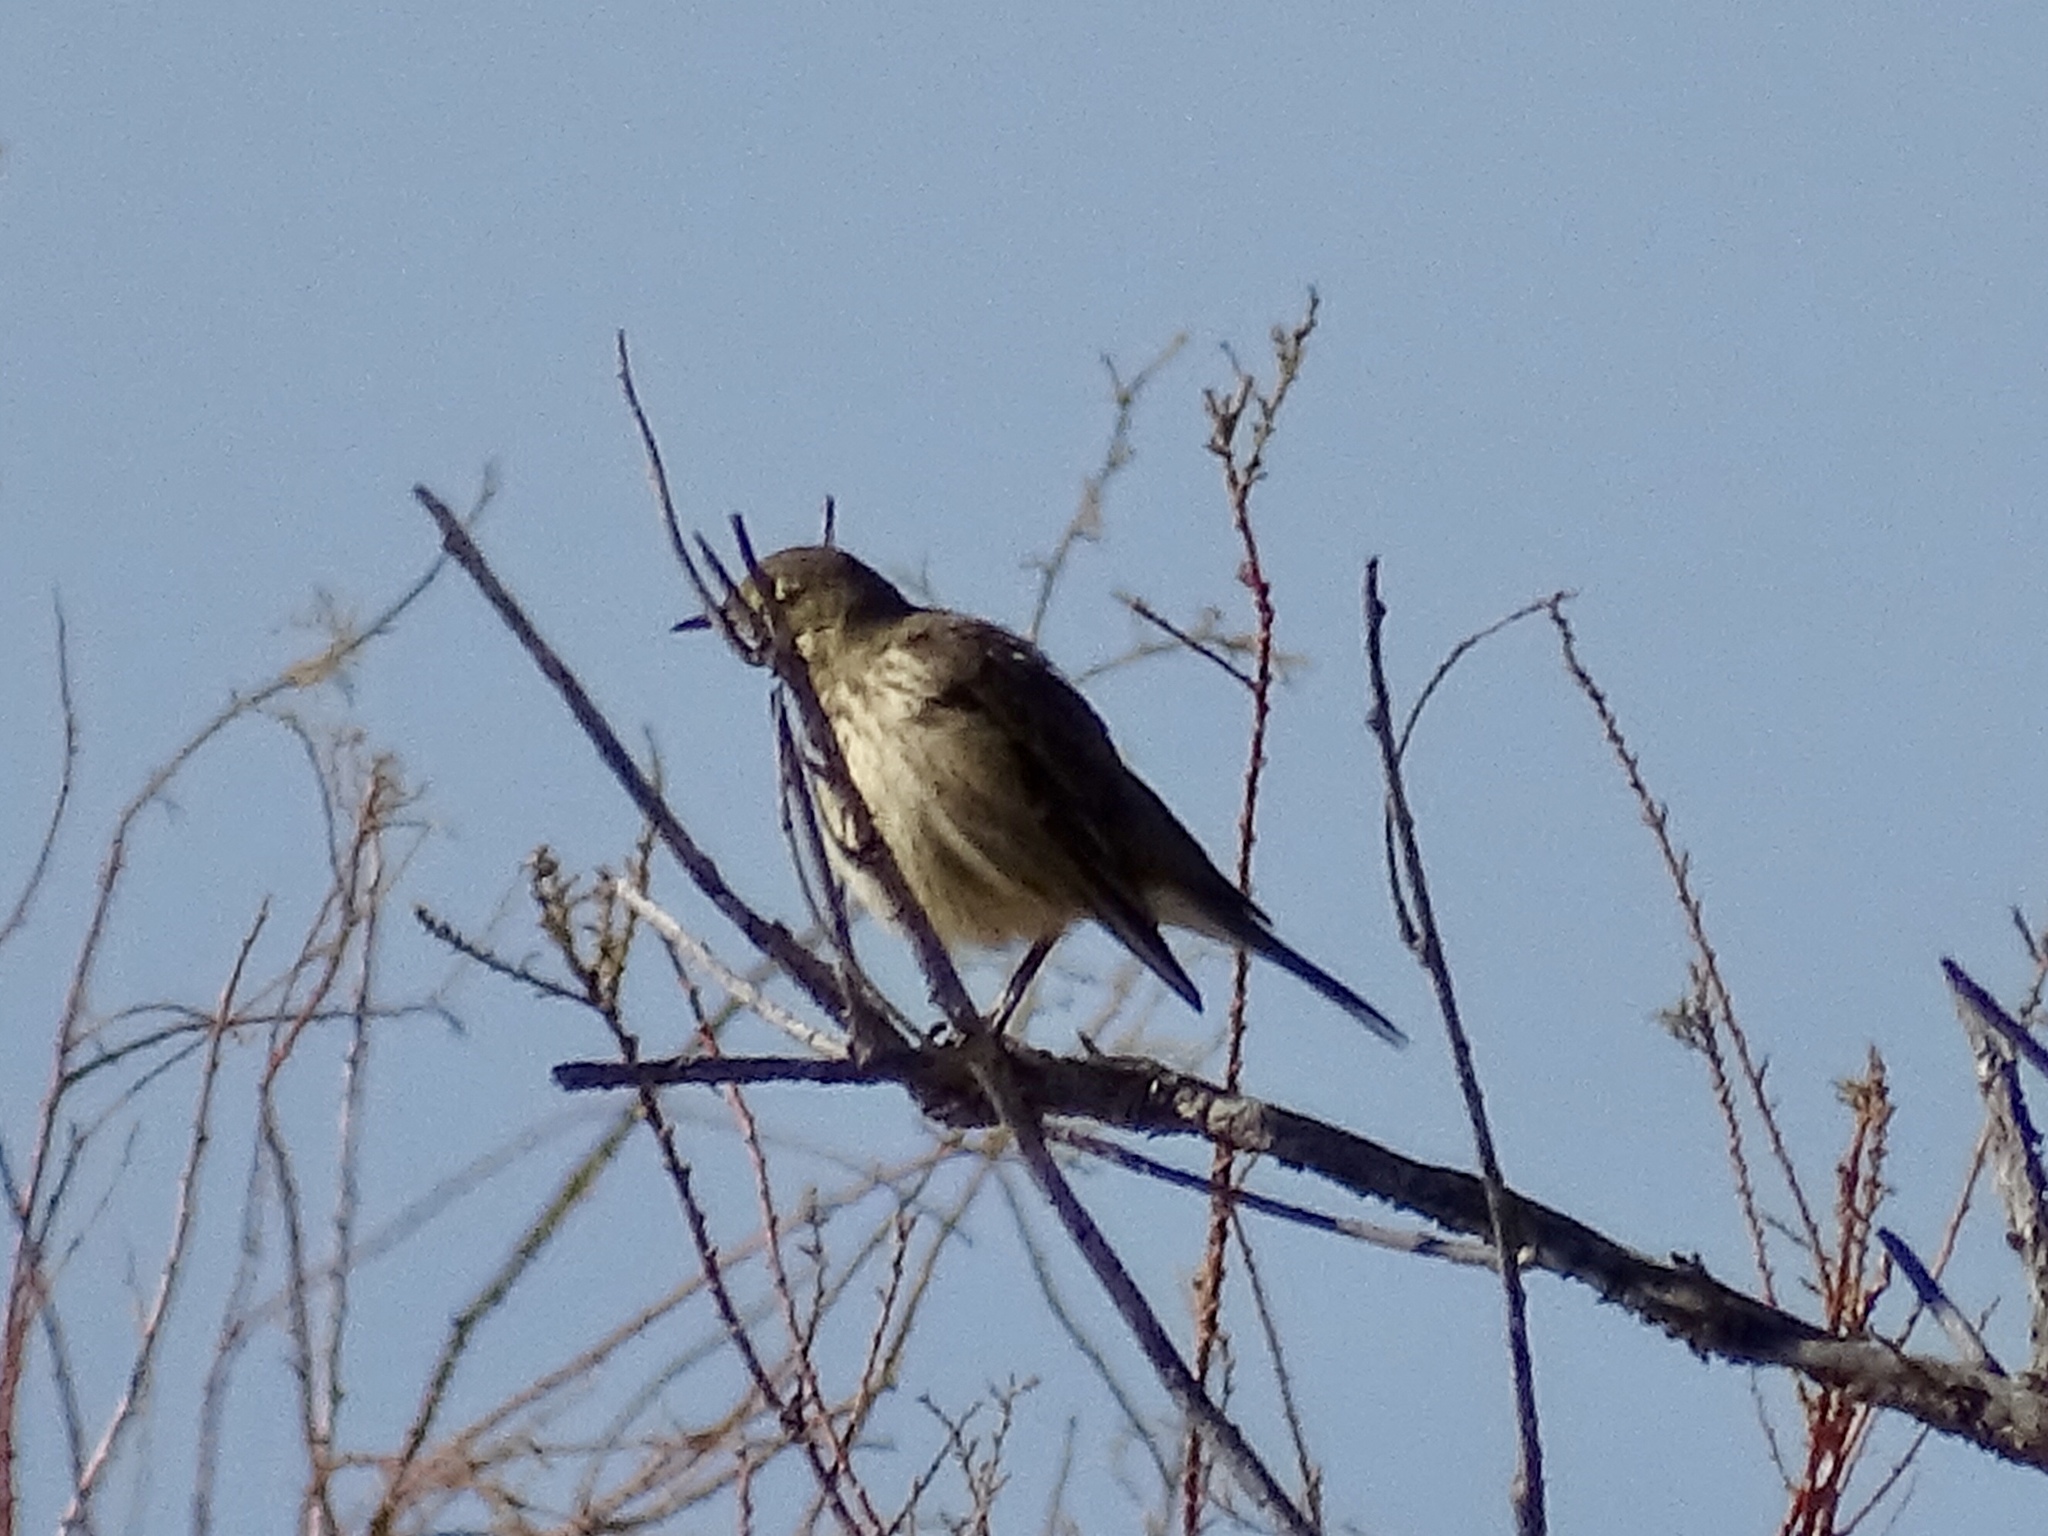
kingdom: Animalia
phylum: Chordata
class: Aves
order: Passeriformes
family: Motacillidae
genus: Anthus
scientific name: Anthus rubescens
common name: Buff-bellied pipit
